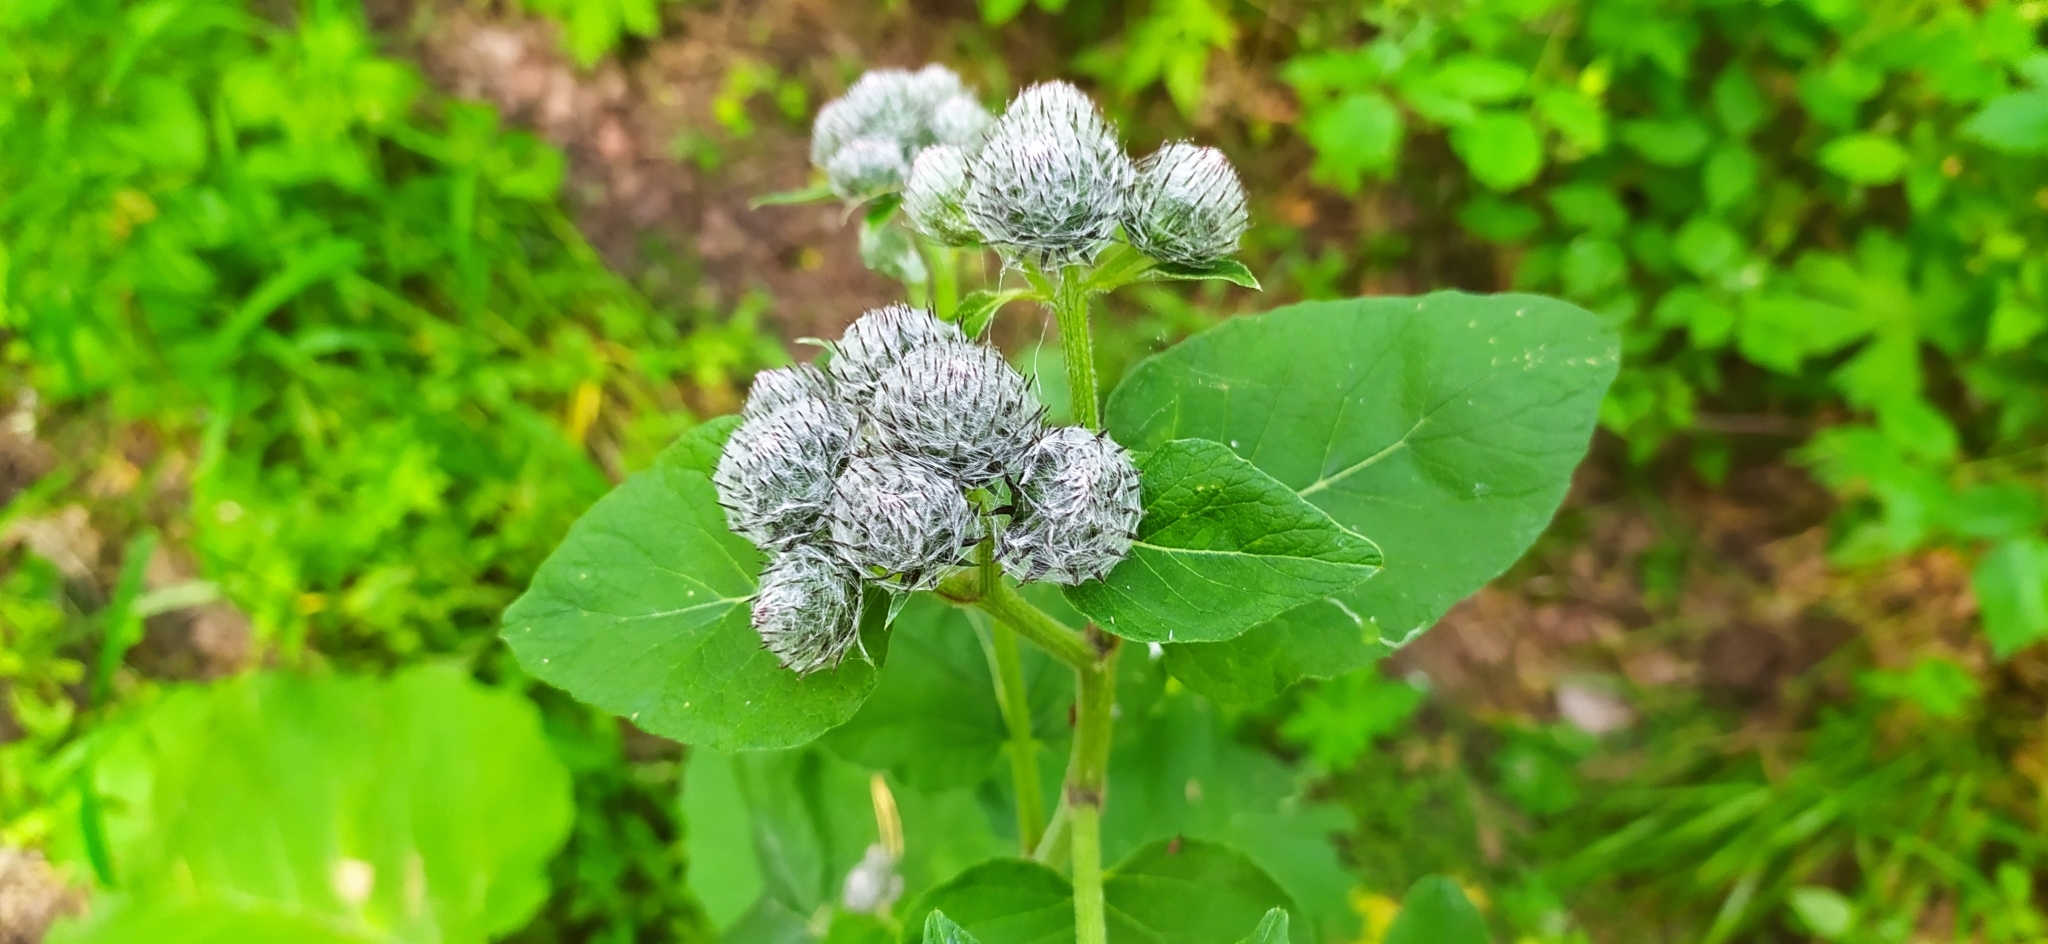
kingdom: Plantae
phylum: Tracheophyta
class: Magnoliopsida
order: Asterales
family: Asteraceae
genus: Arctium
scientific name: Arctium tomentosum
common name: Woolly burdock
